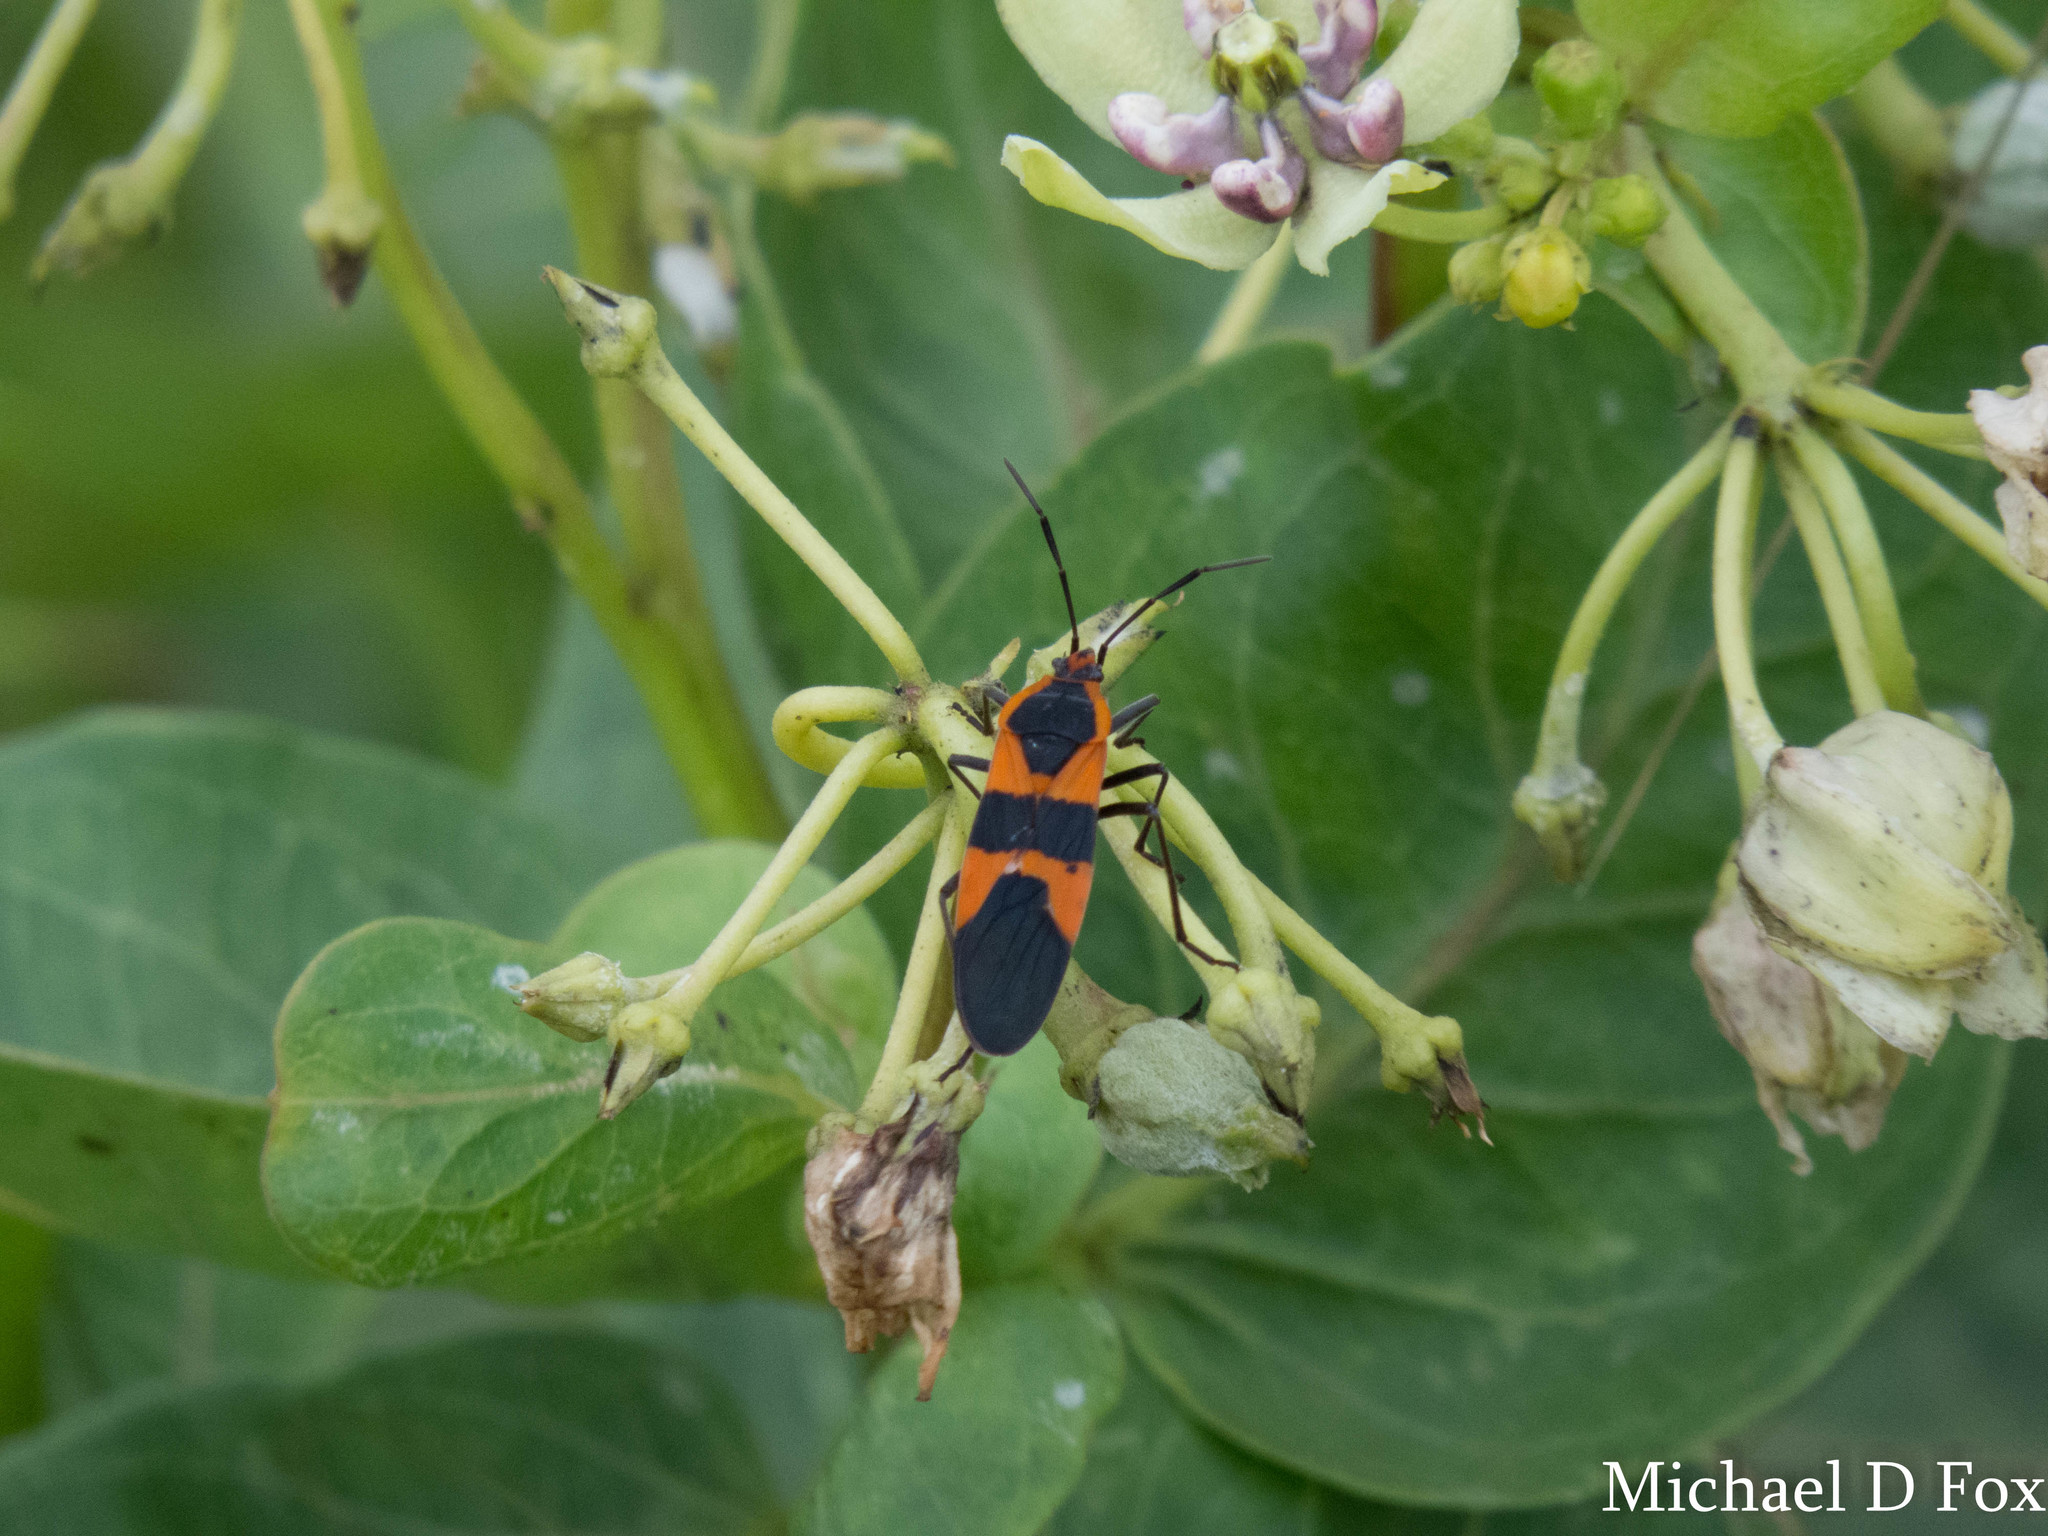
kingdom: Animalia
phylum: Arthropoda
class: Insecta
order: Hemiptera
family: Lygaeidae
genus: Oncopeltus
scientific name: Oncopeltus fasciatus
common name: Large milkweed bug
